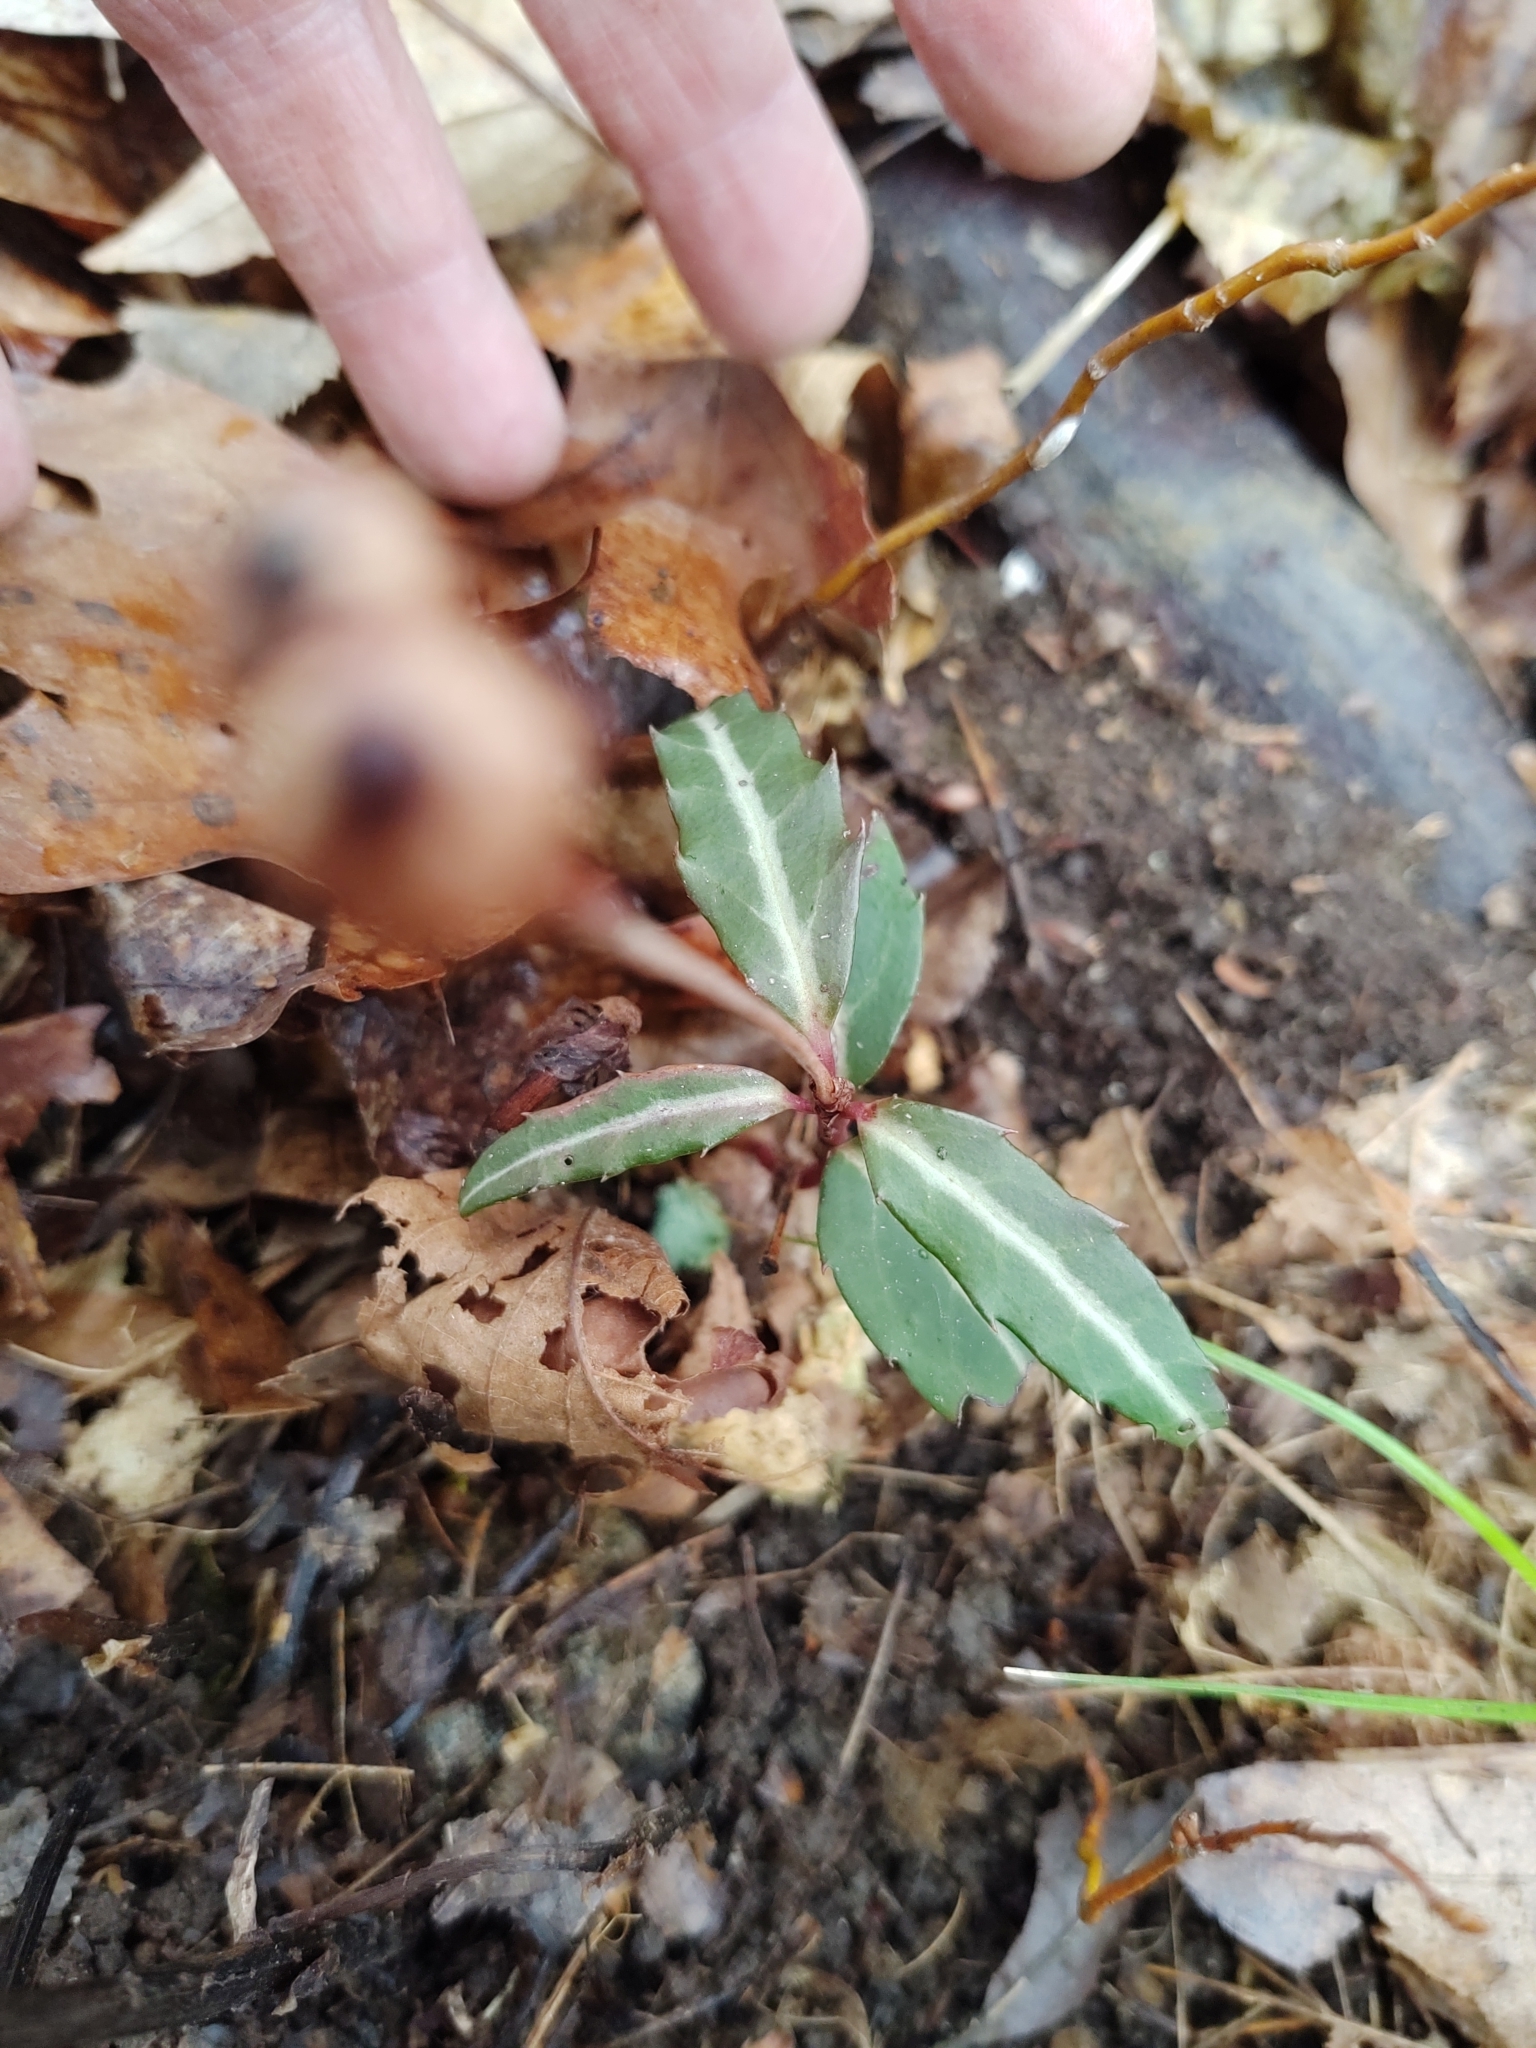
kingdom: Plantae
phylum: Tracheophyta
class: Magnoliopsida
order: Ericales
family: Ericaceae
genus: Chimaphila
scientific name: Chimaphila maculata
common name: Spotted pipsissewa
